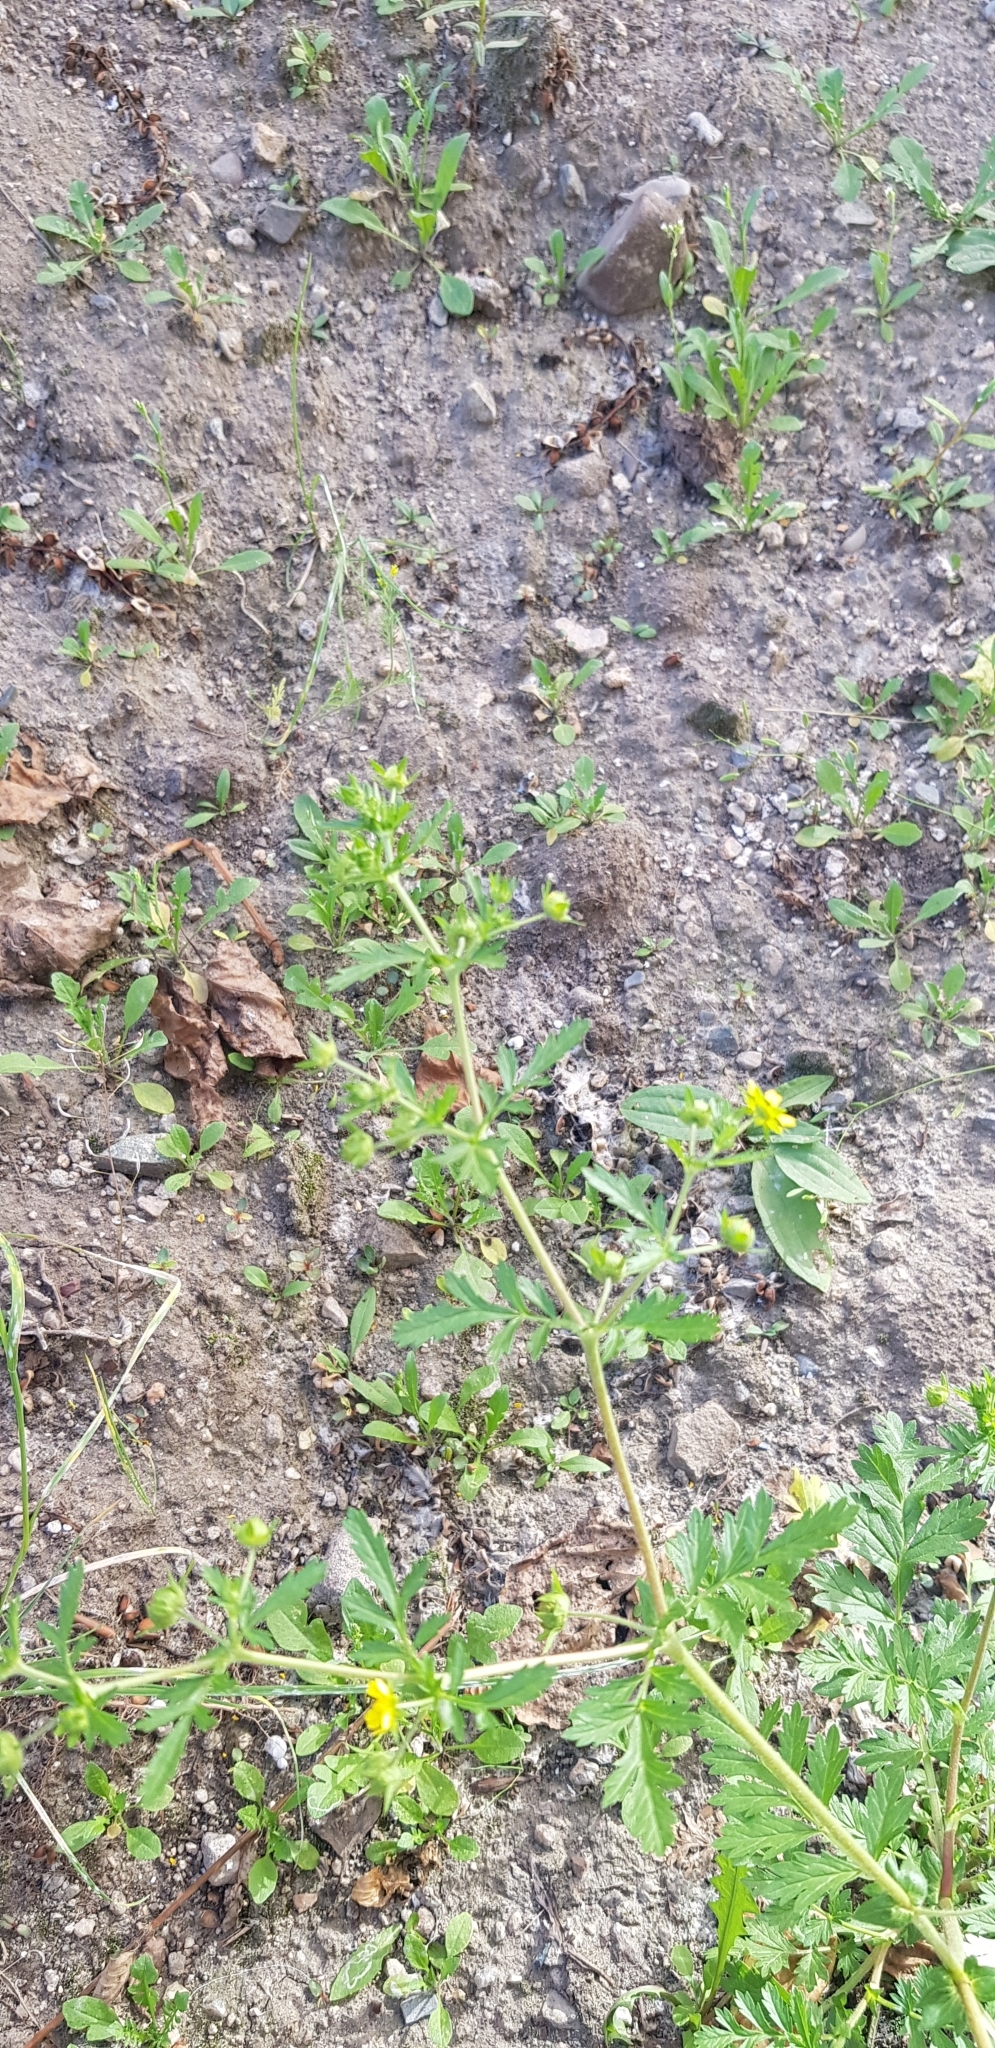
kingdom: Plantae
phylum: Tracheophyta
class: Magnoliopsida
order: Rosales
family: Rosaceae
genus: Potentilla
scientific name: Potentilla supina
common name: Prostrate cinquefoil
